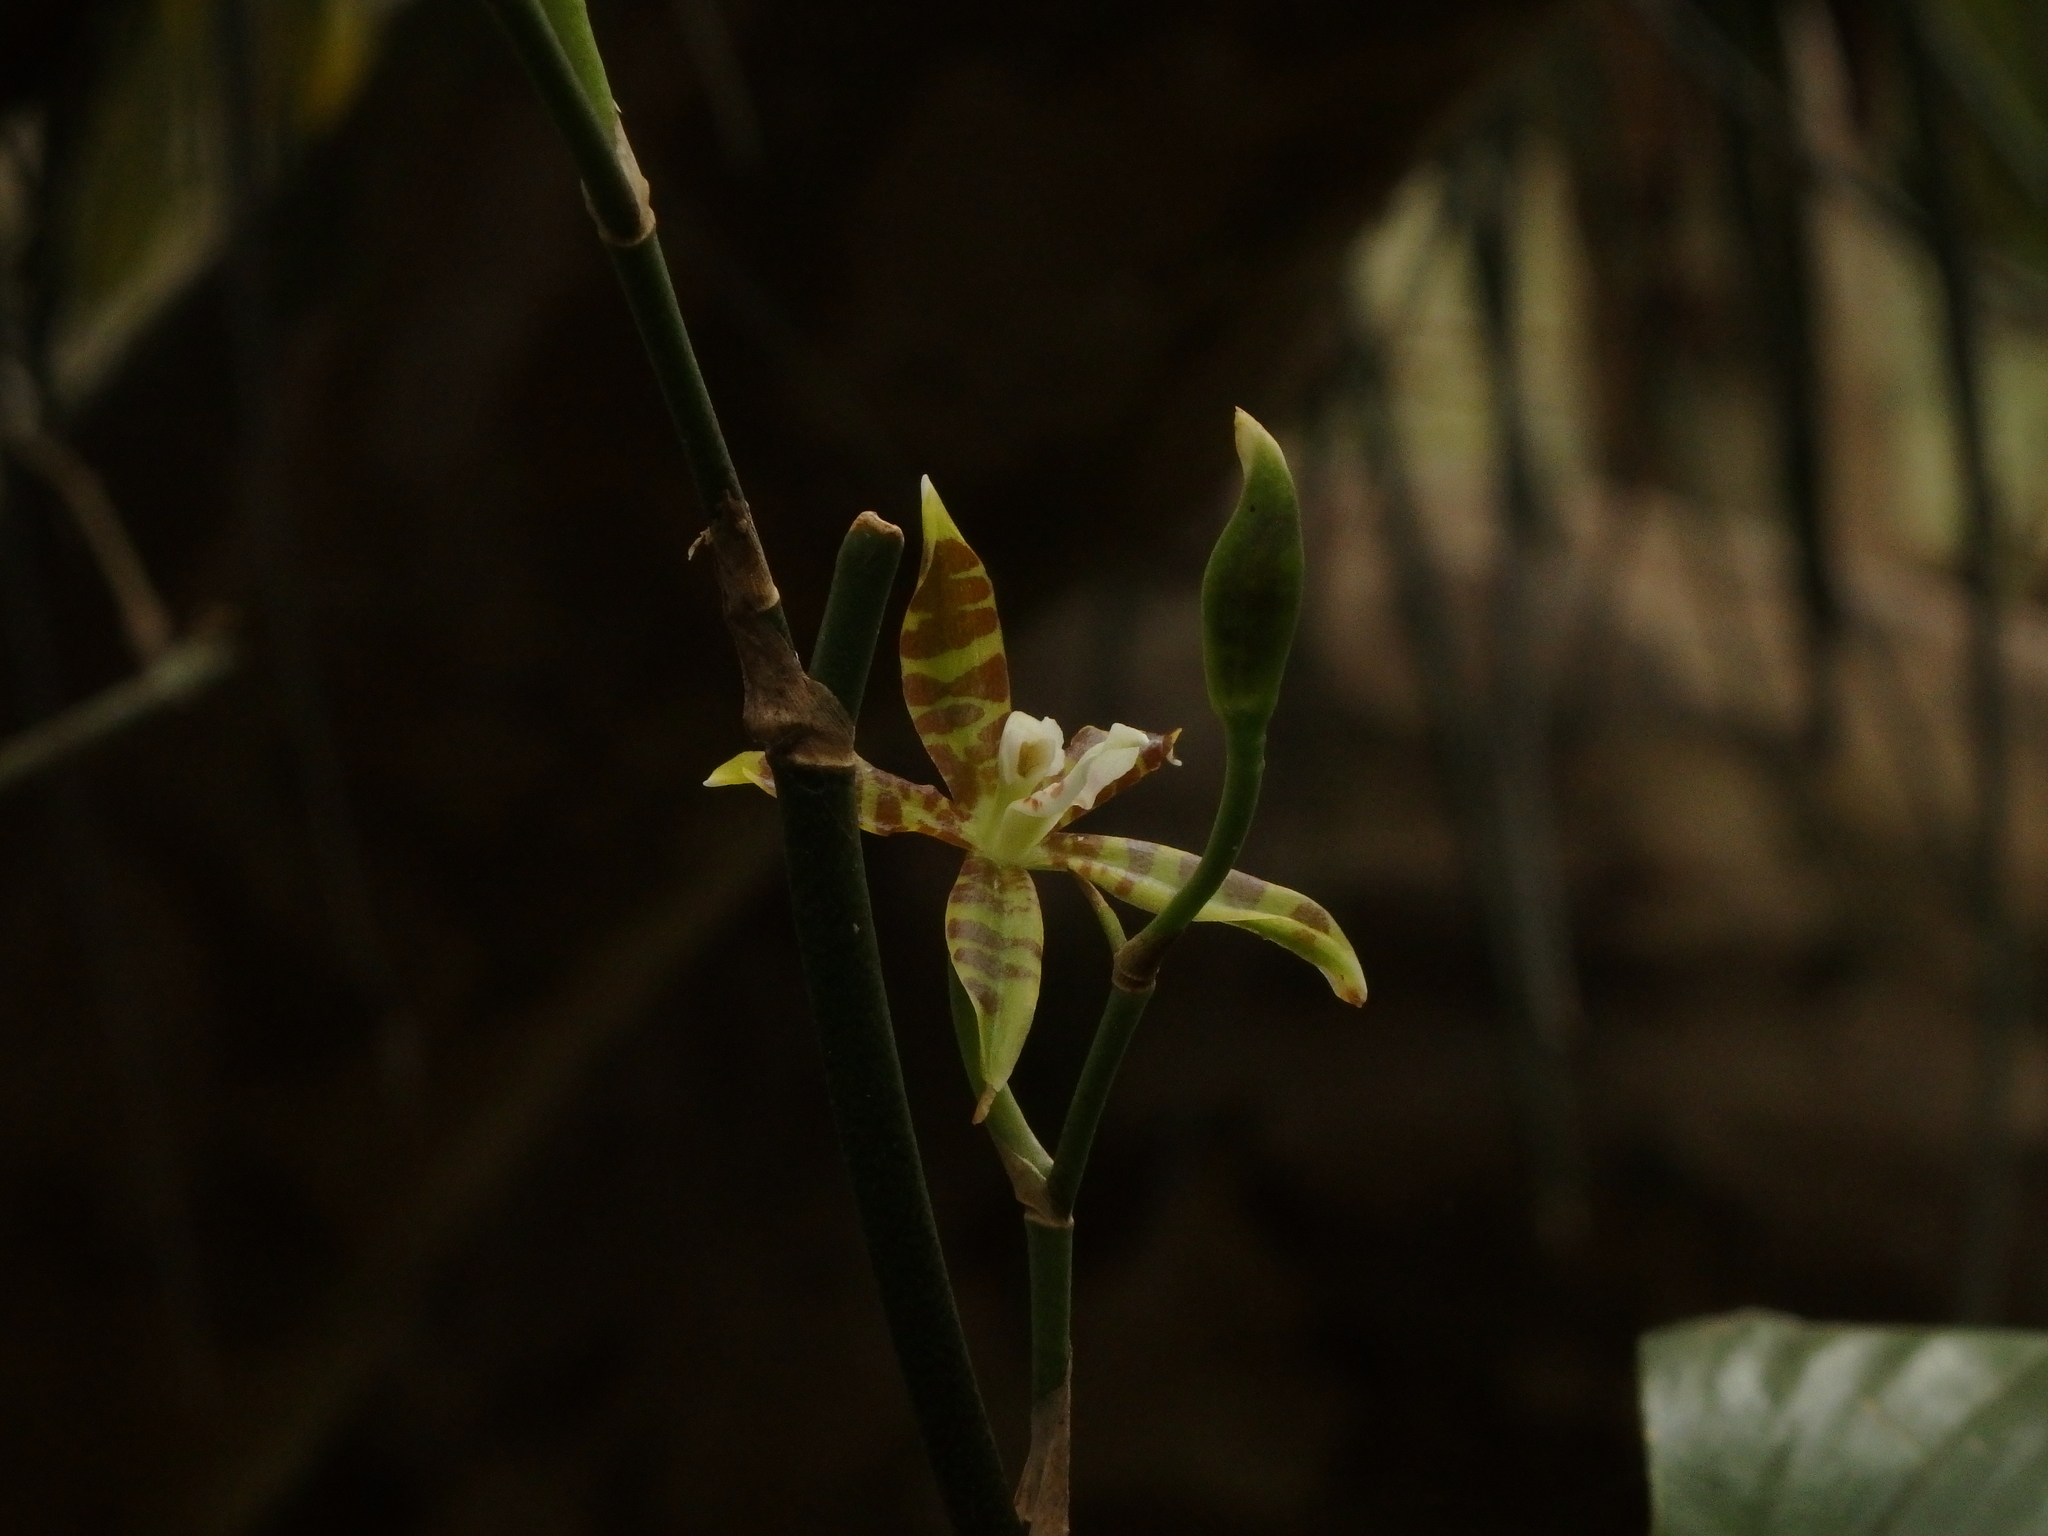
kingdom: Plantae
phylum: Tracheophyta
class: Liliopsida
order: Asparagales
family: Orchidaceae
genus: Oncidium
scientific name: Oncidium stenoglossum
